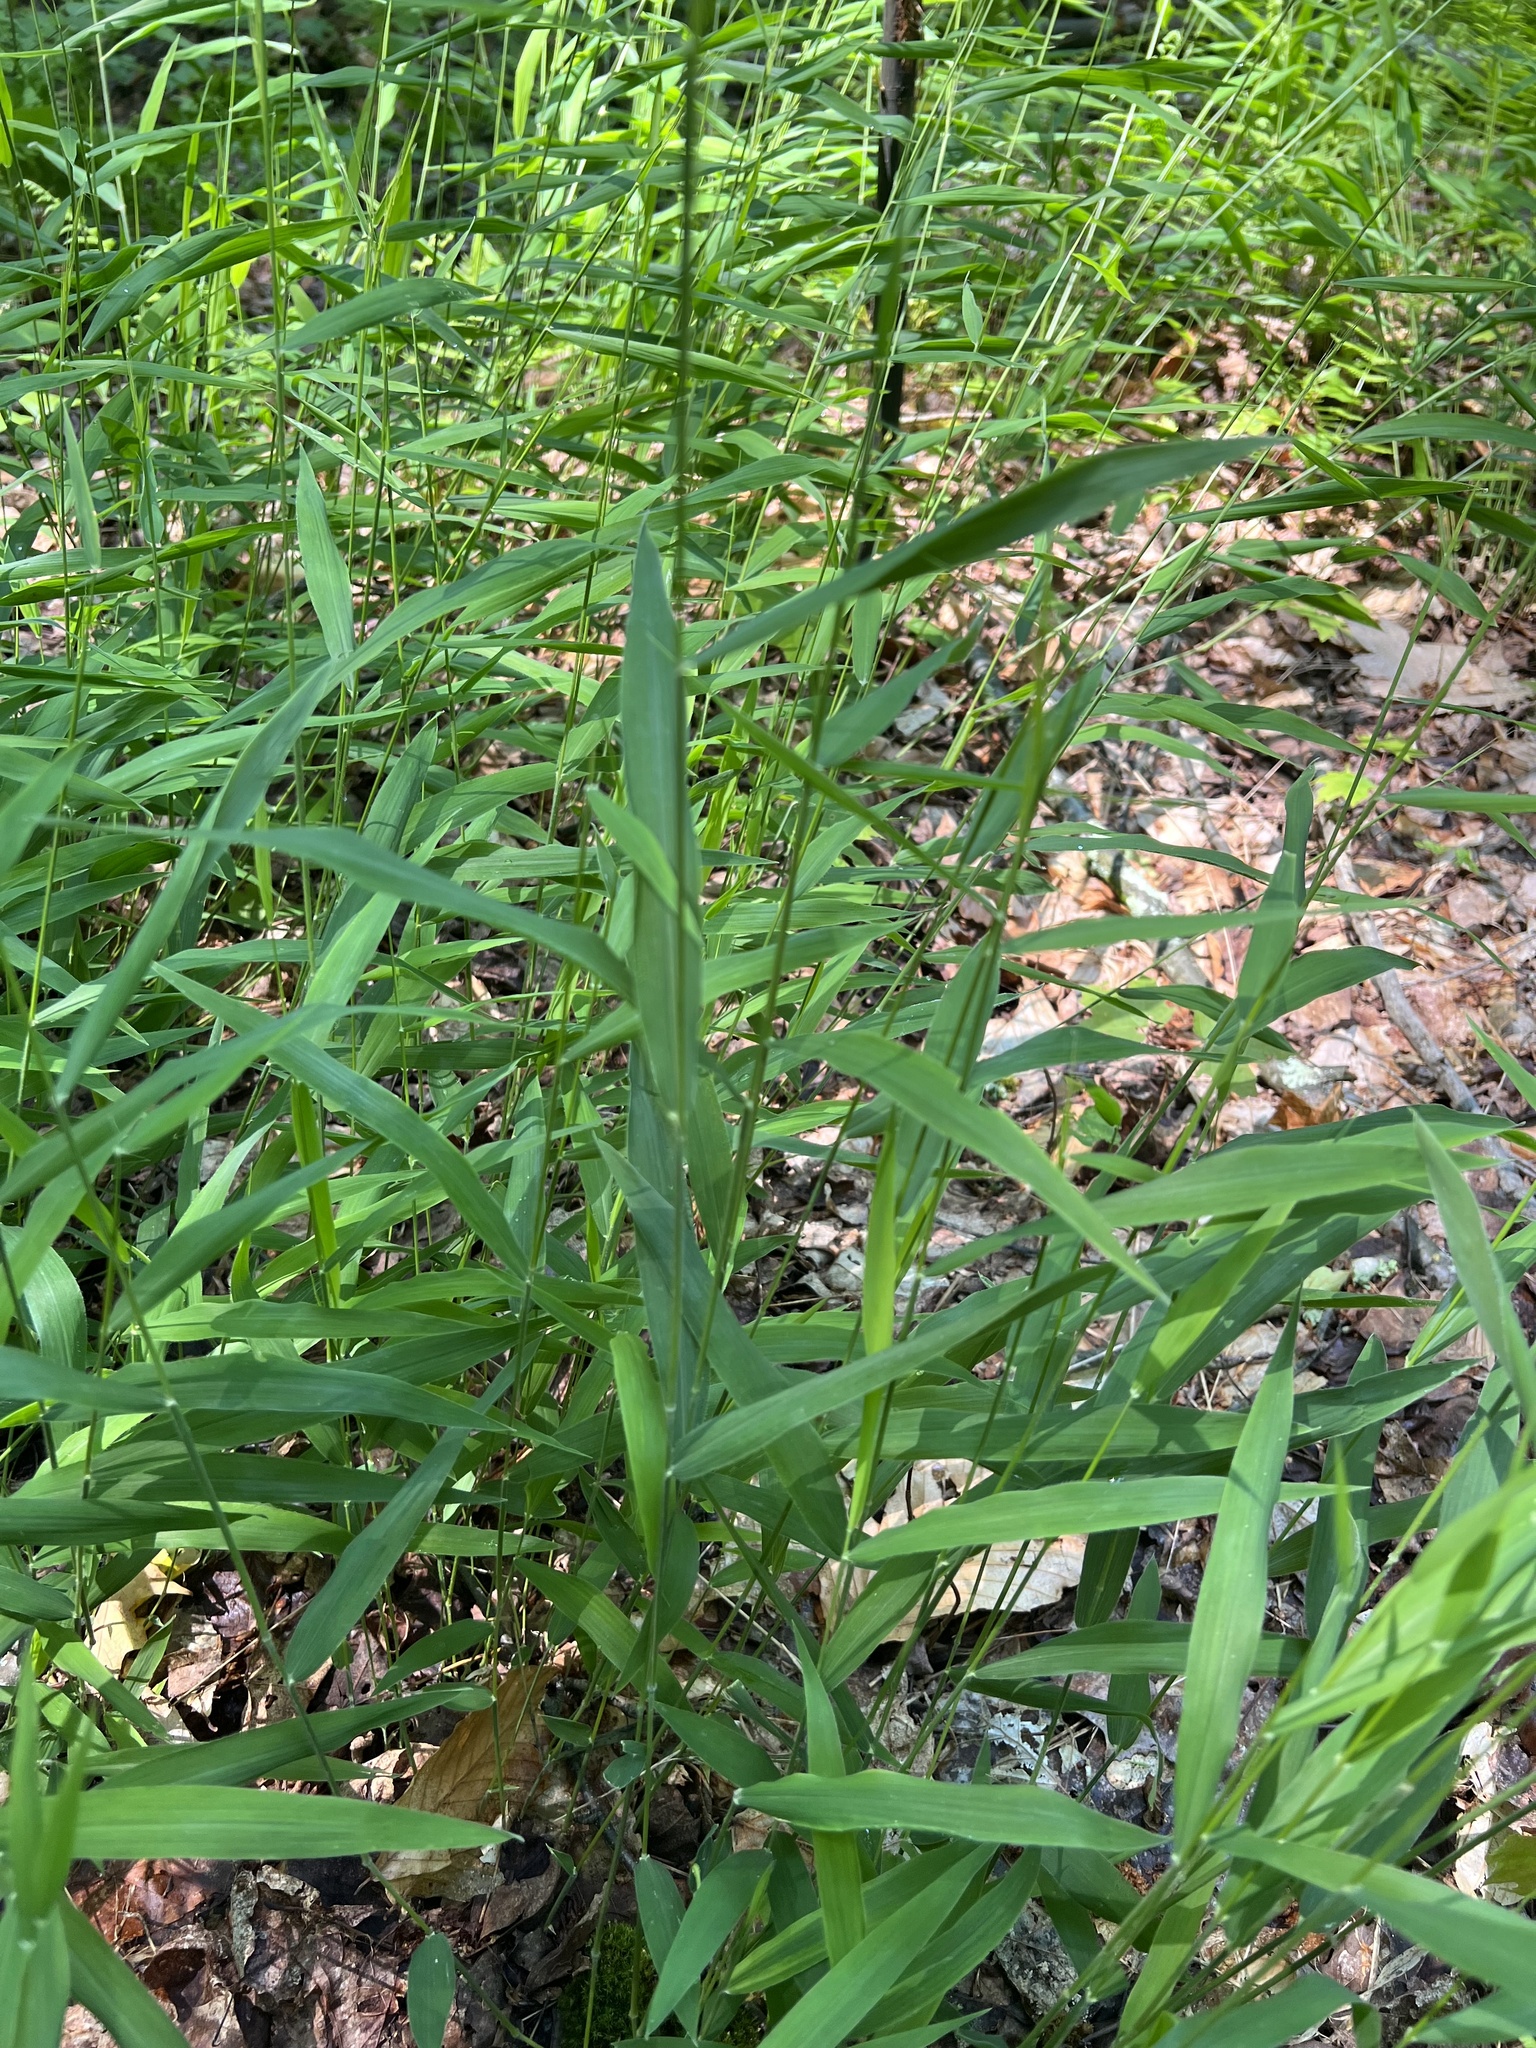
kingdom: Plantae
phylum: Tracheophyta
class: Liliopsida
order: Poales
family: Poaceae
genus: Leersia
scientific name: Leersia virginica
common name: White cutgrass
